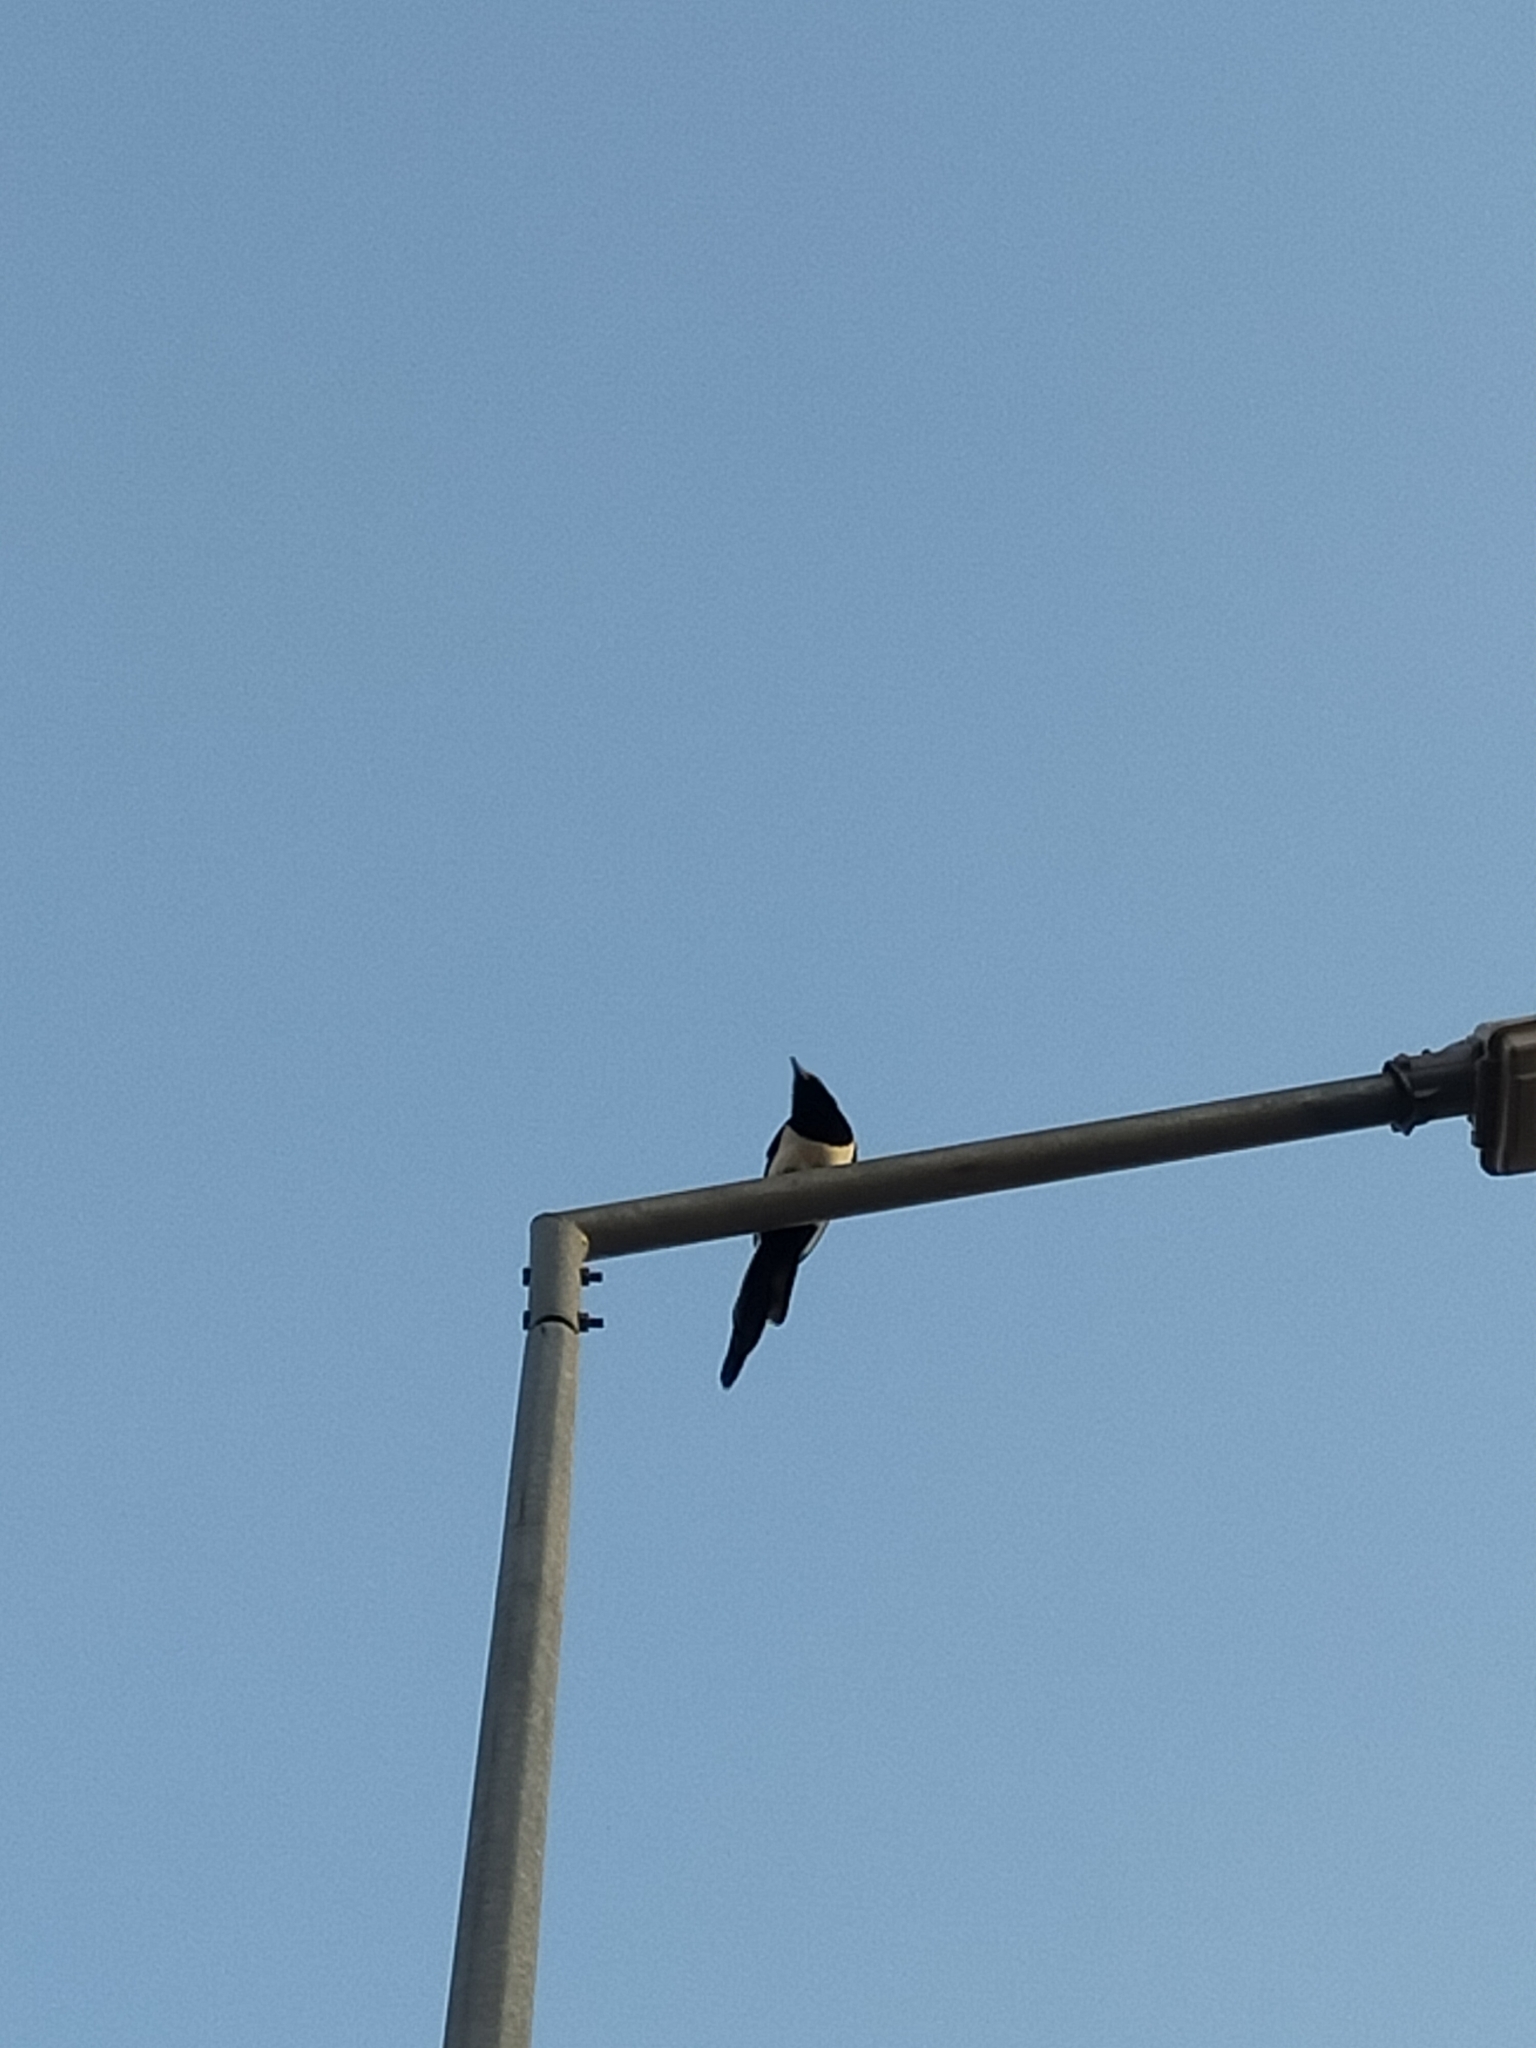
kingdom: Animalia
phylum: Chordata
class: Aves
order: Passeriformes
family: Corvidae
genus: Pica
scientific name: Pica pica
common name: Eurasian magpie
